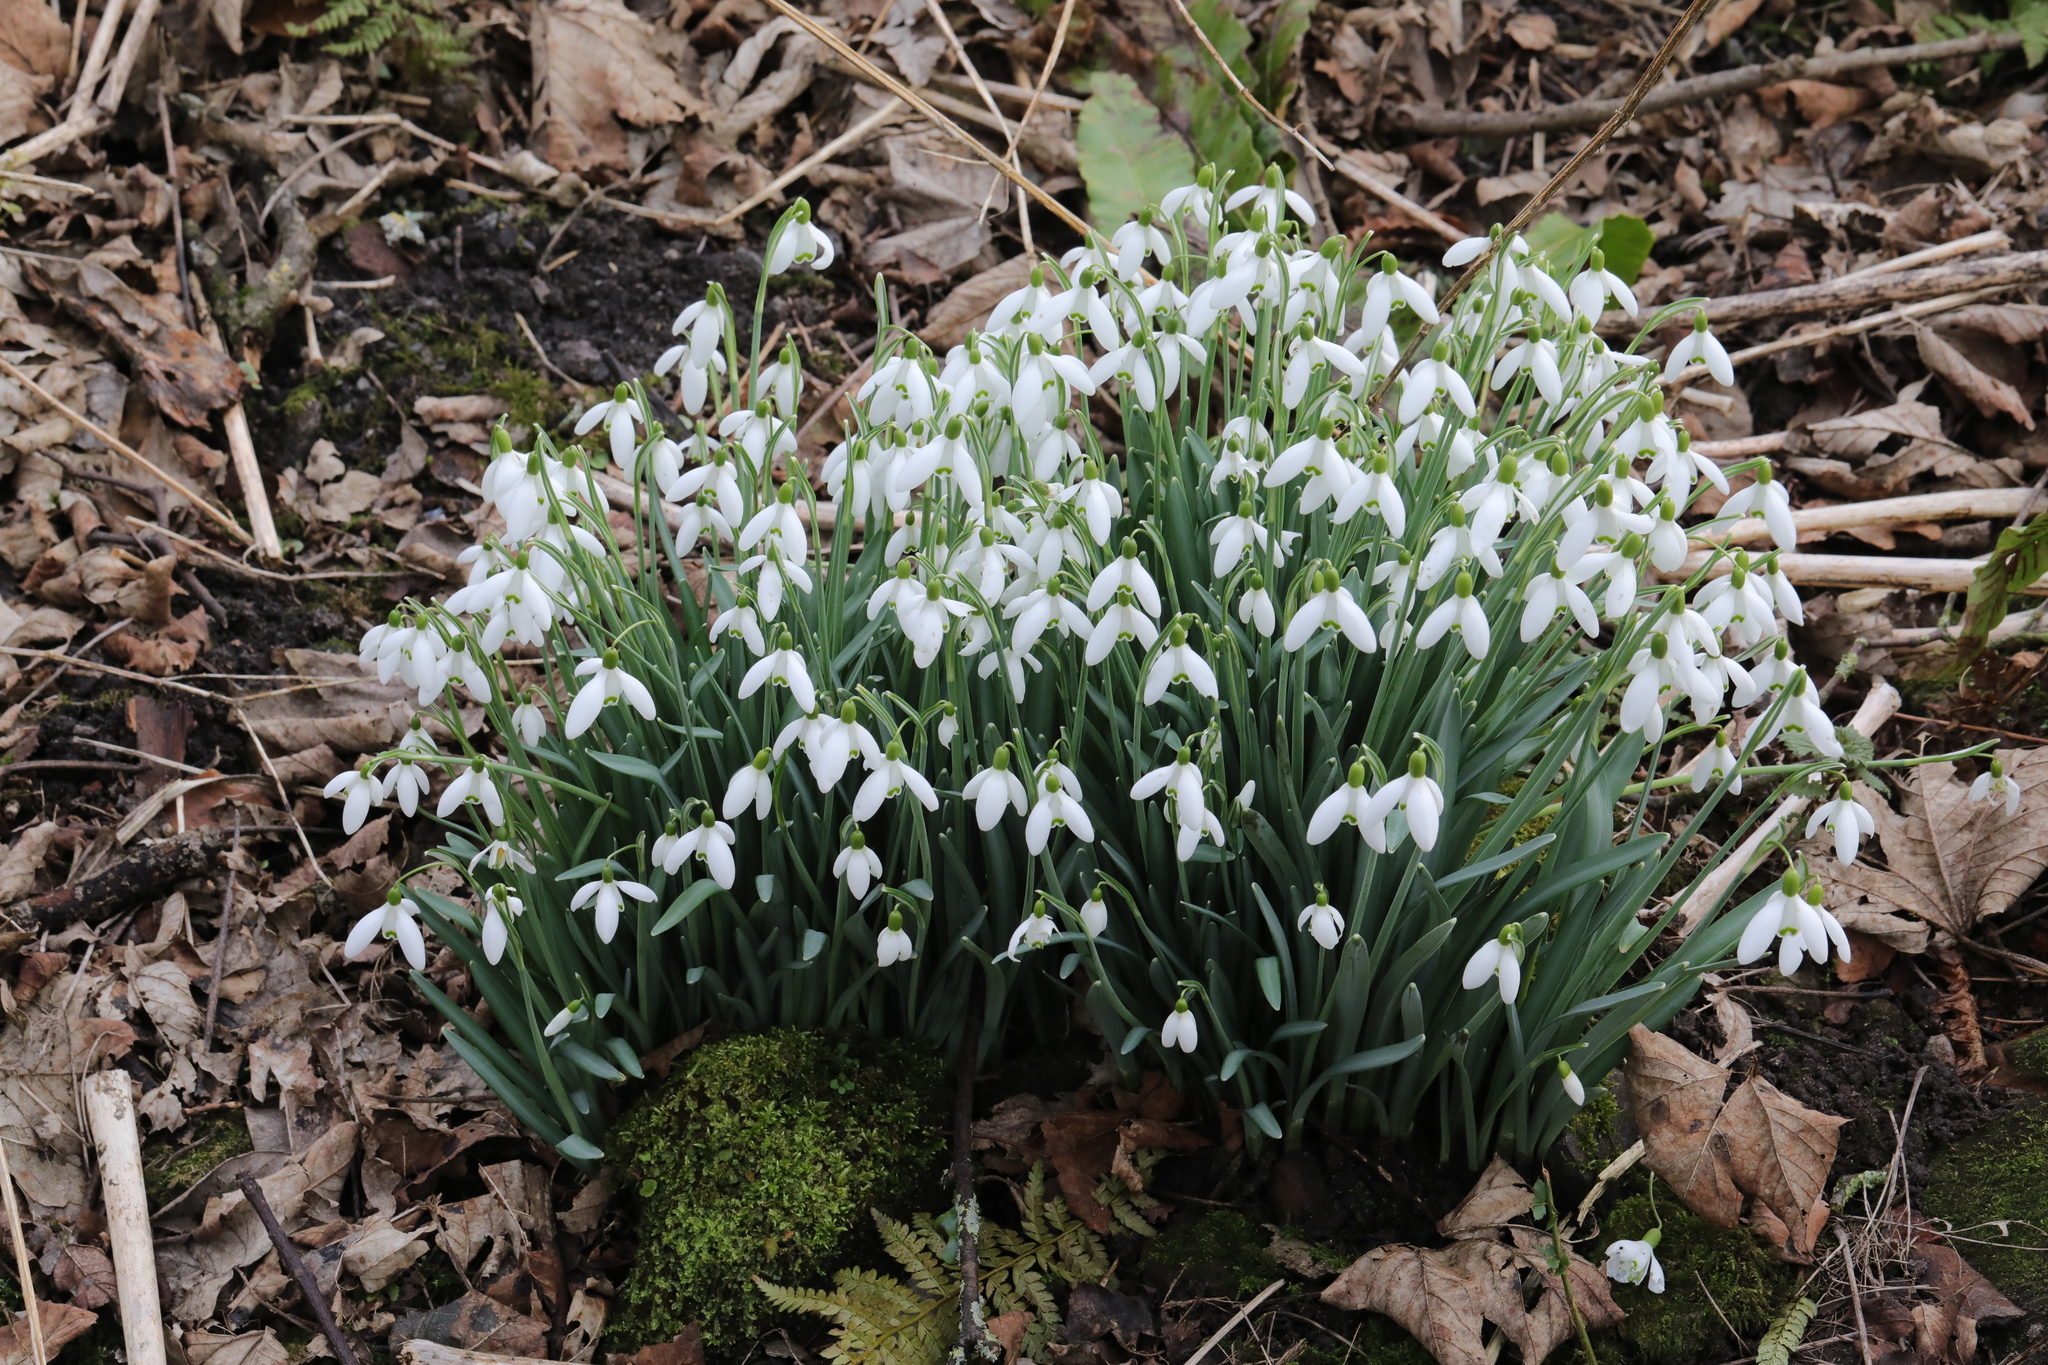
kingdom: Plantae
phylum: Tracheophyta
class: Liliopsida
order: Asparagales
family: Amaryllidaceae
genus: Galanthus
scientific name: Galanthus nivalis
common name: Snowdrop
